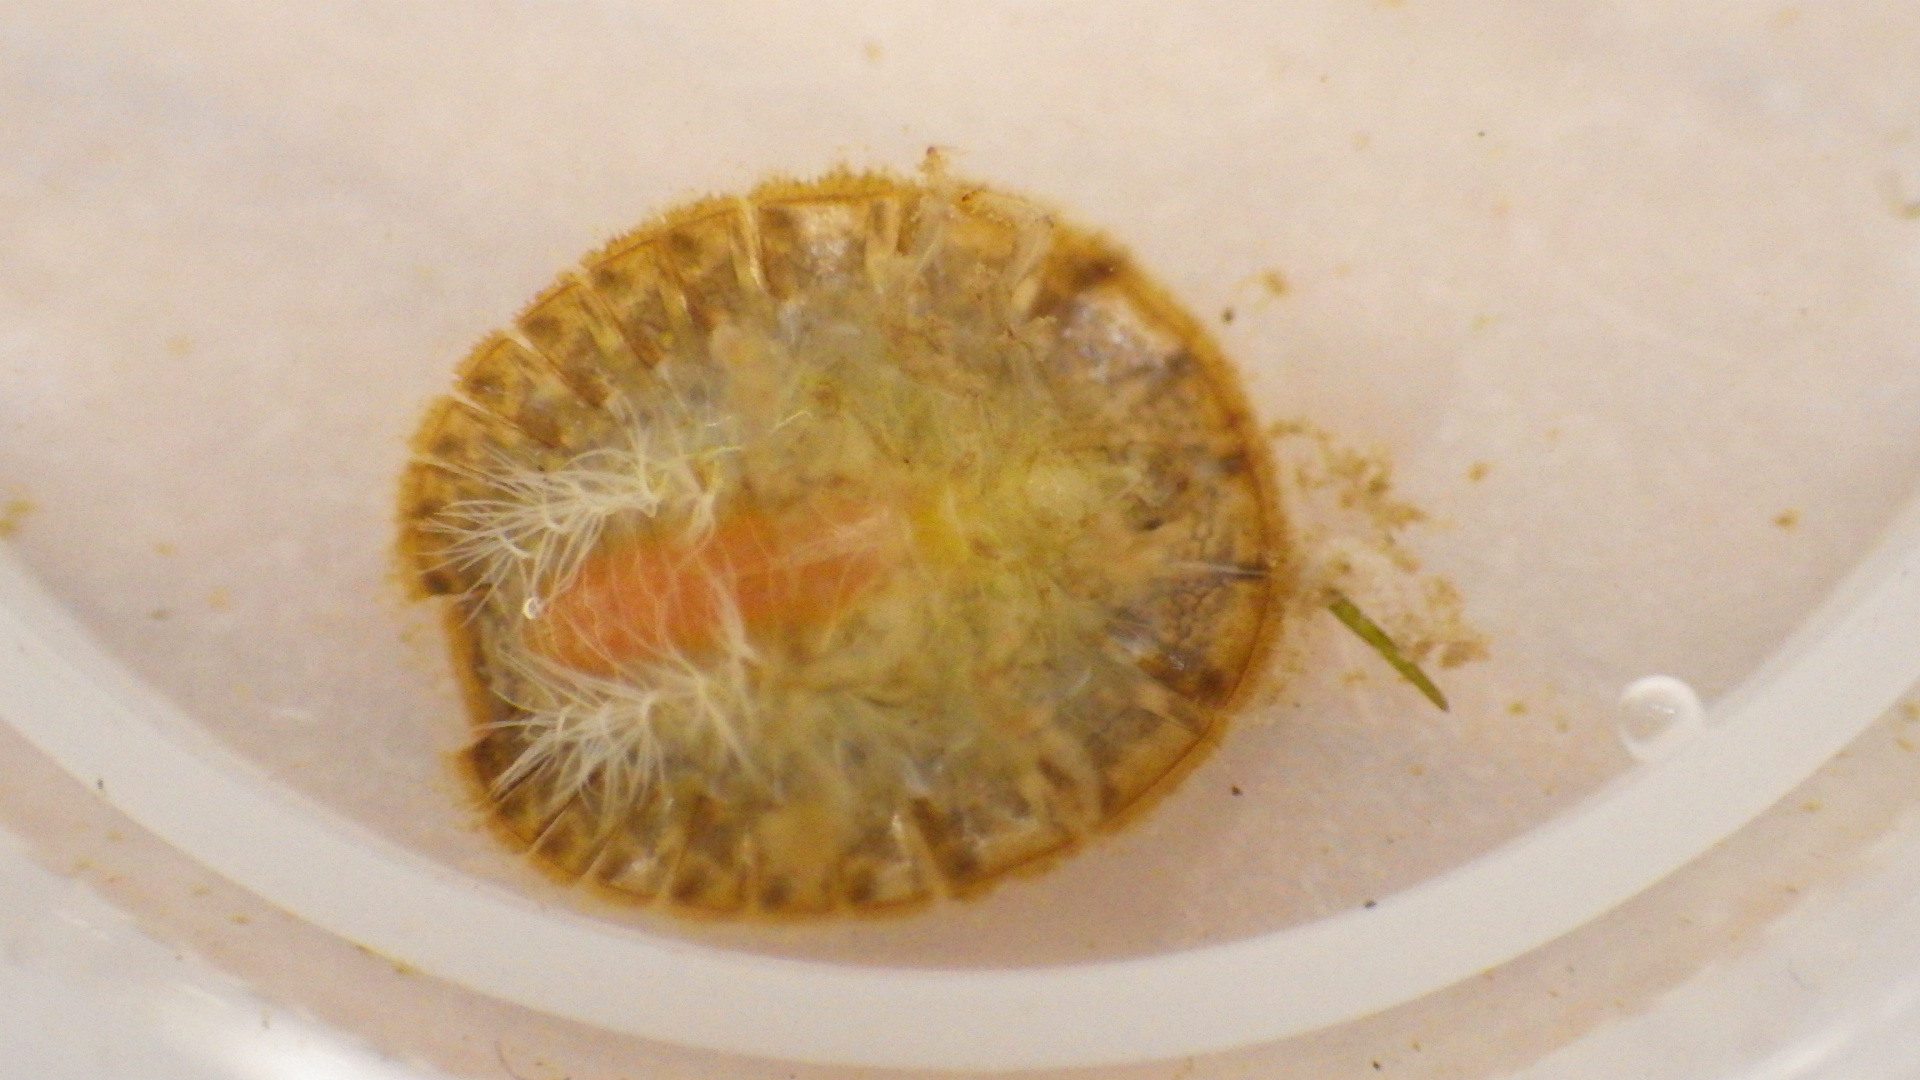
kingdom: Animalia
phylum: Arthropoda
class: Insecta
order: Coleoptera
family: Psephenidae
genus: Psephenus
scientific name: Psephenus herricki
